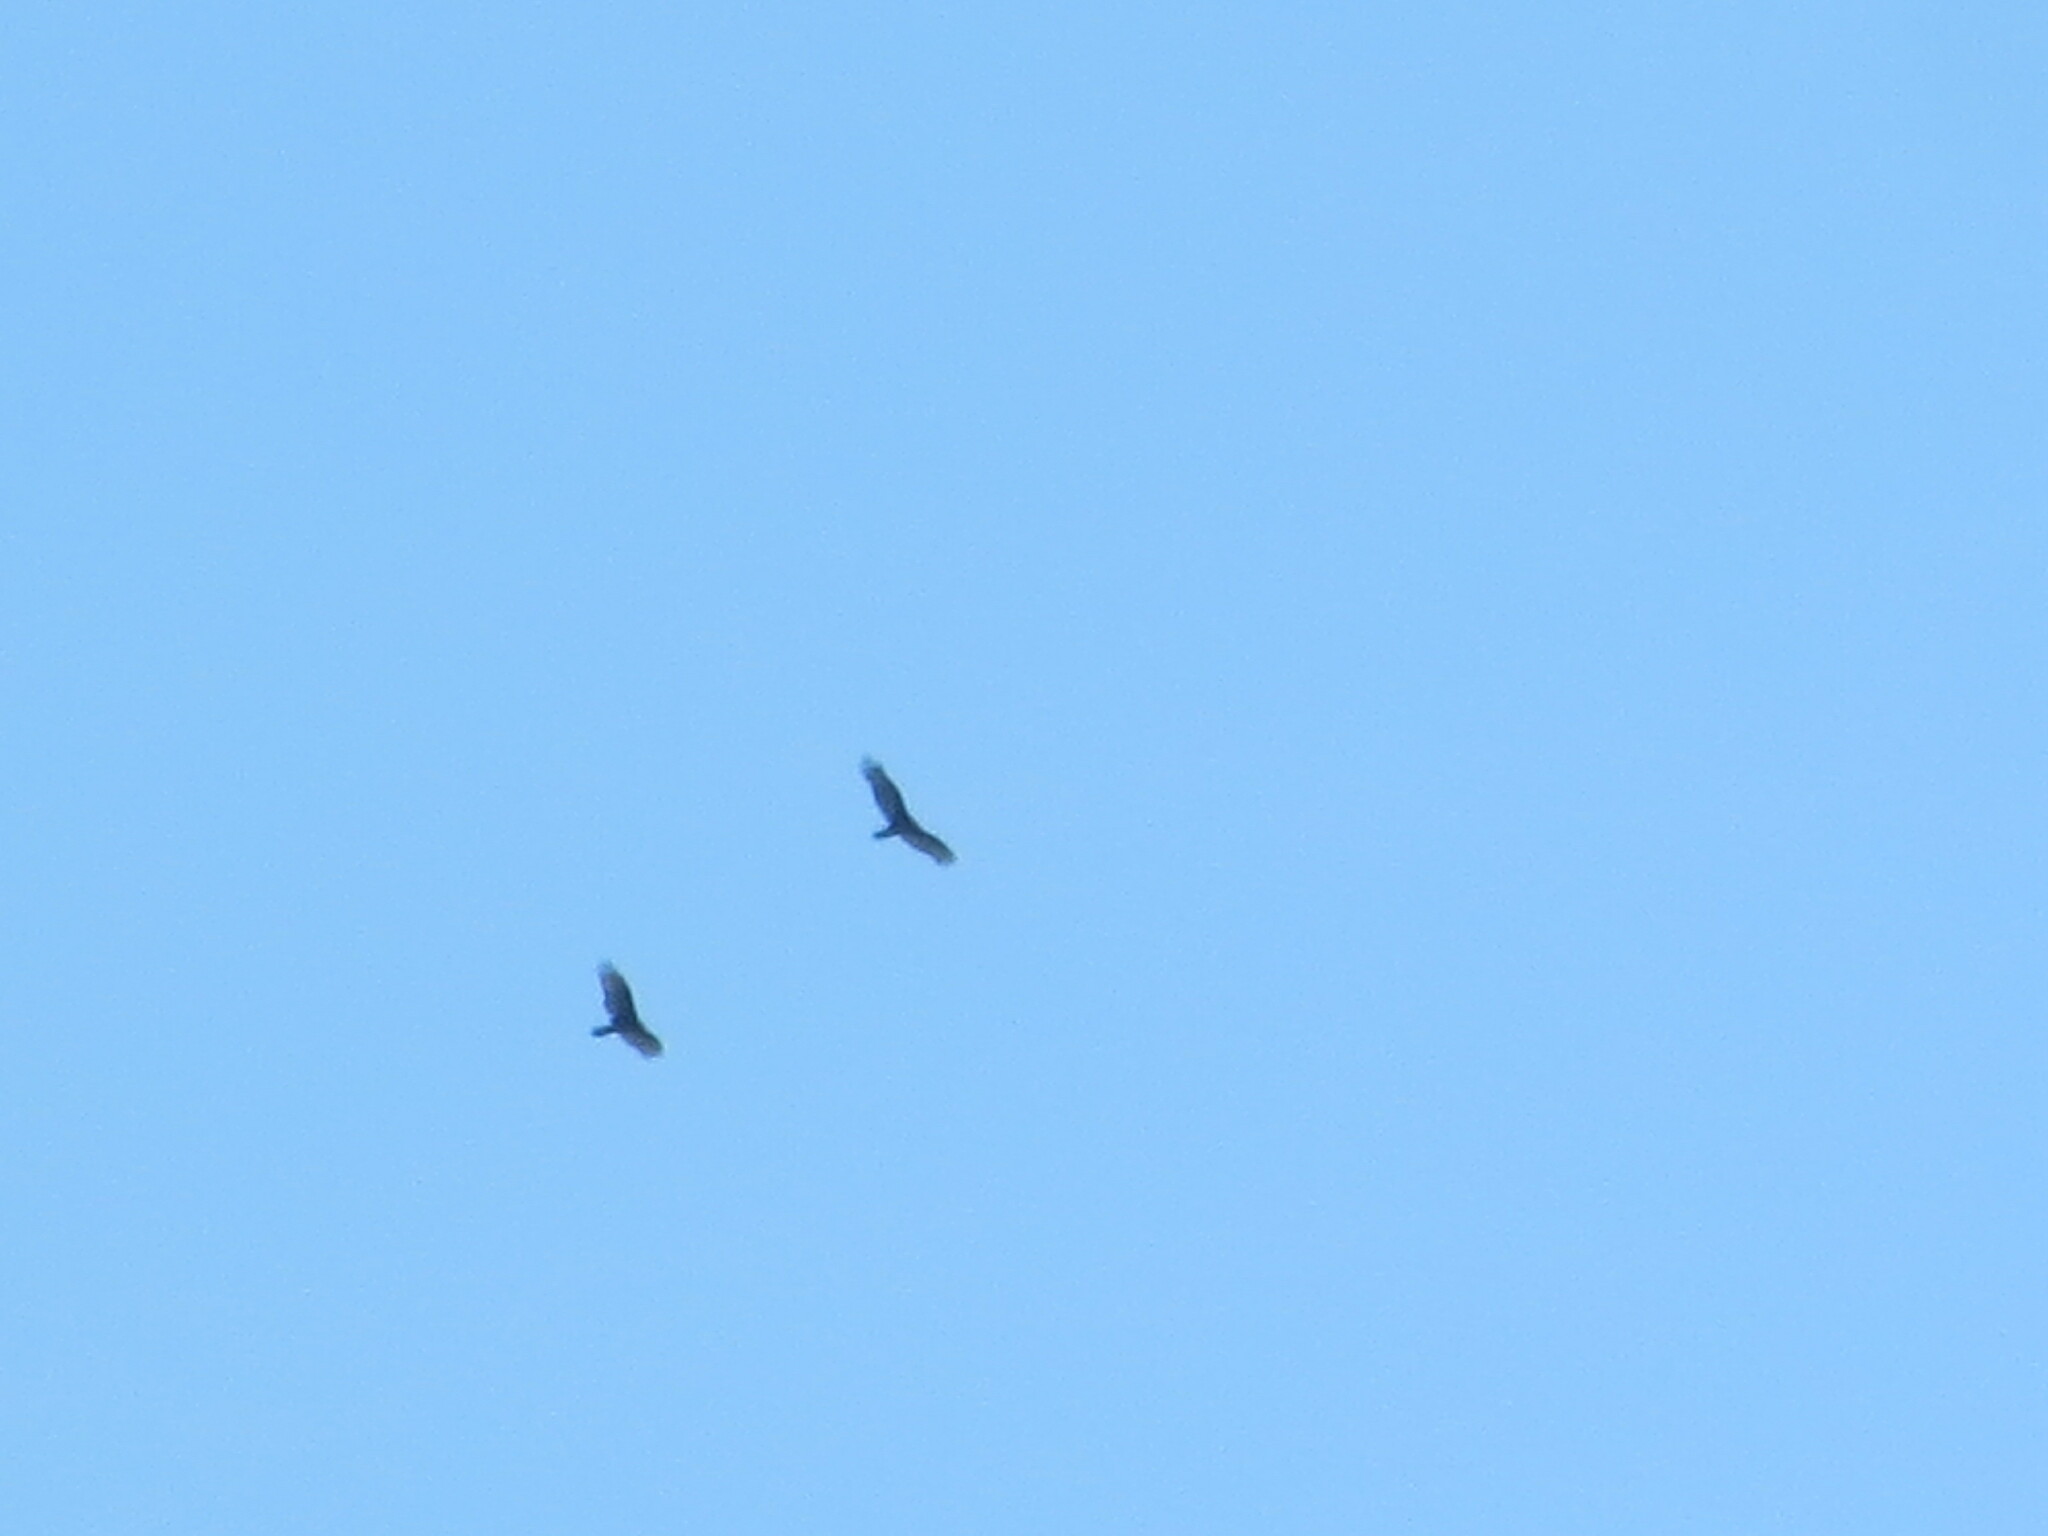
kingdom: Animalia
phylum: Chordata
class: Aves
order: Accipitriformes
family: Cathartidae
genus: Cathartes
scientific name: Cathartes aura
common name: Turkey vulture
